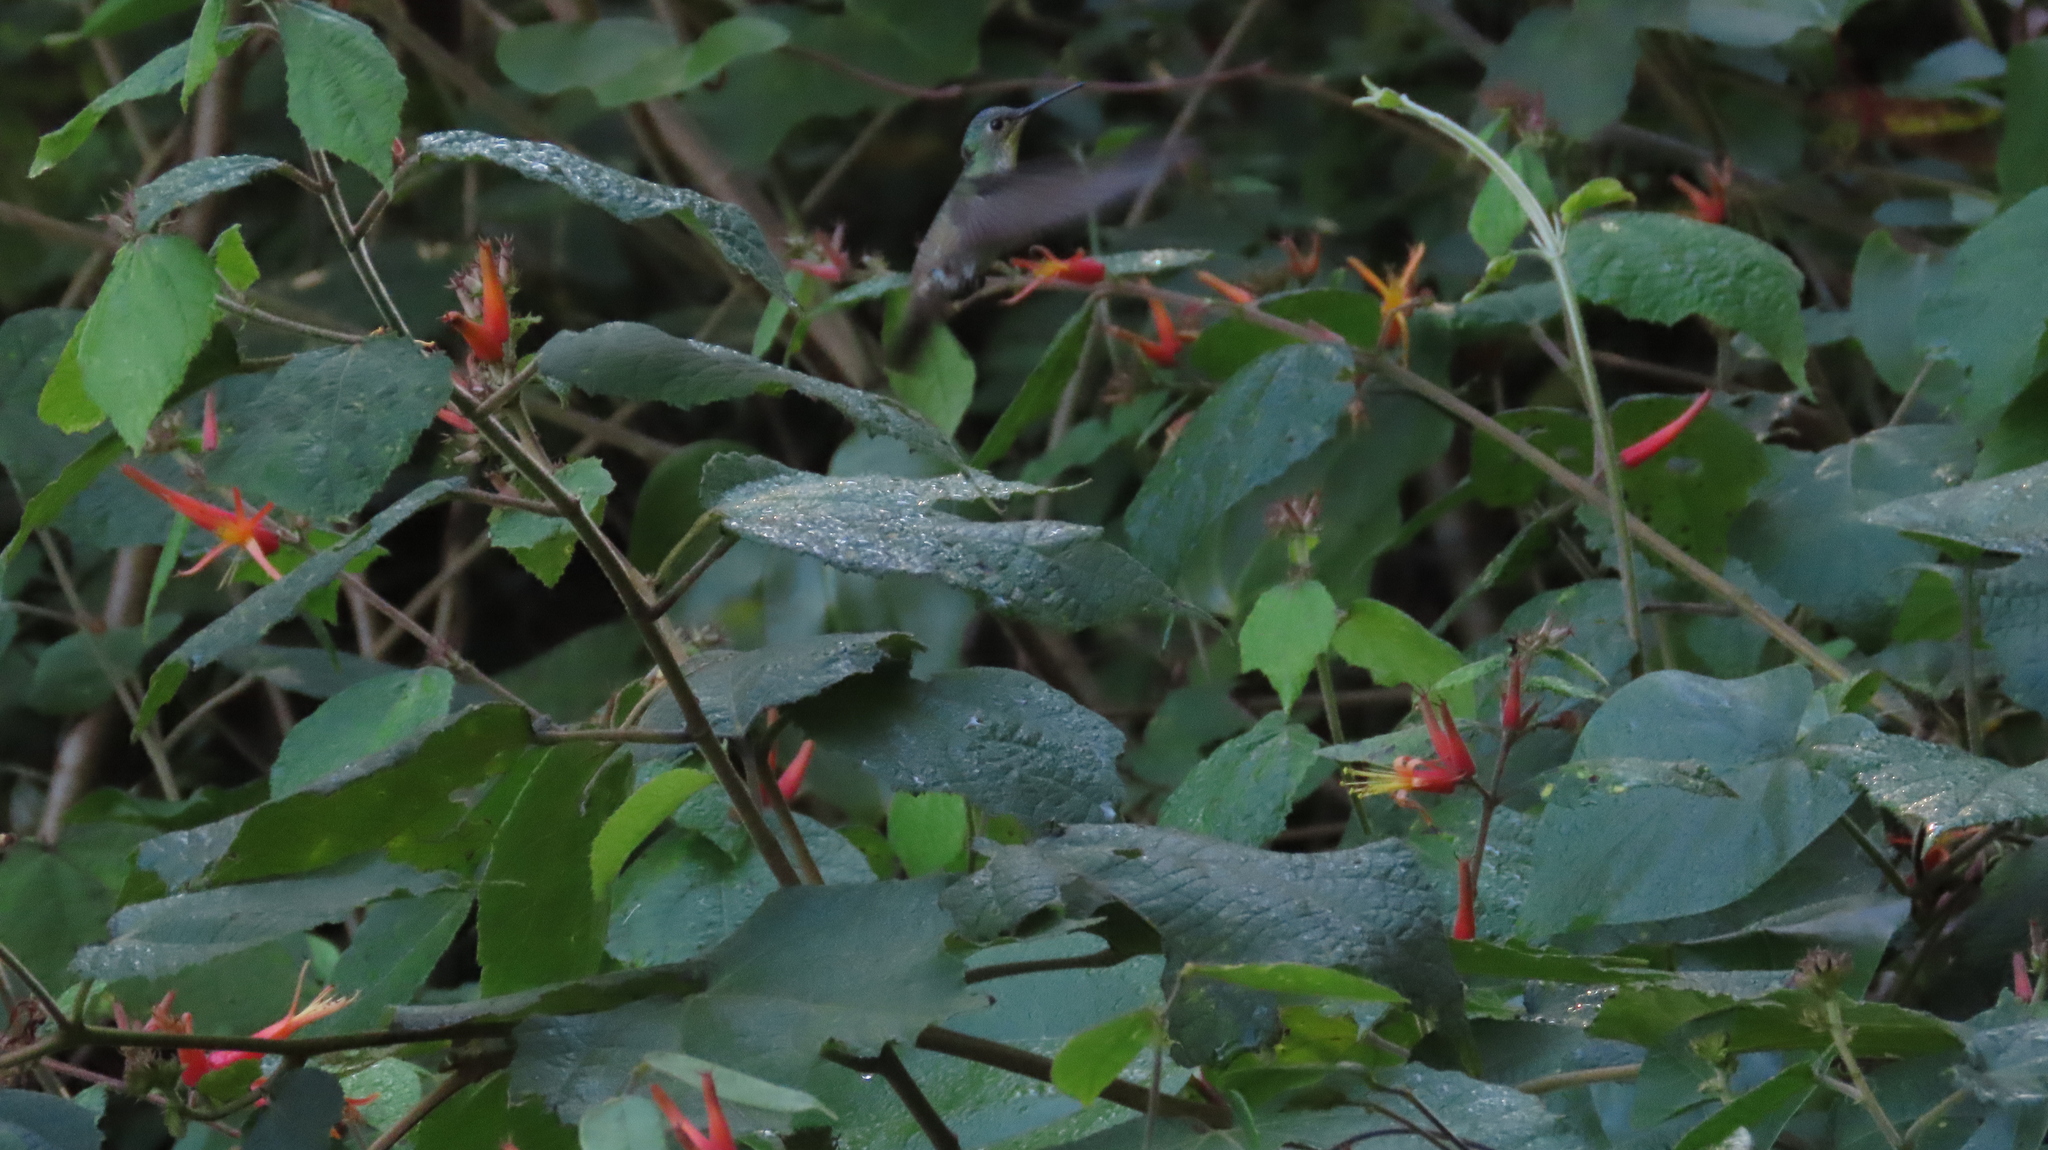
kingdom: Plantae
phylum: Tracheophyta
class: Magnoliopsida
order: Malvales
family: Malvaceae
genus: Triumfetta
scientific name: Triumfetta speciosa
